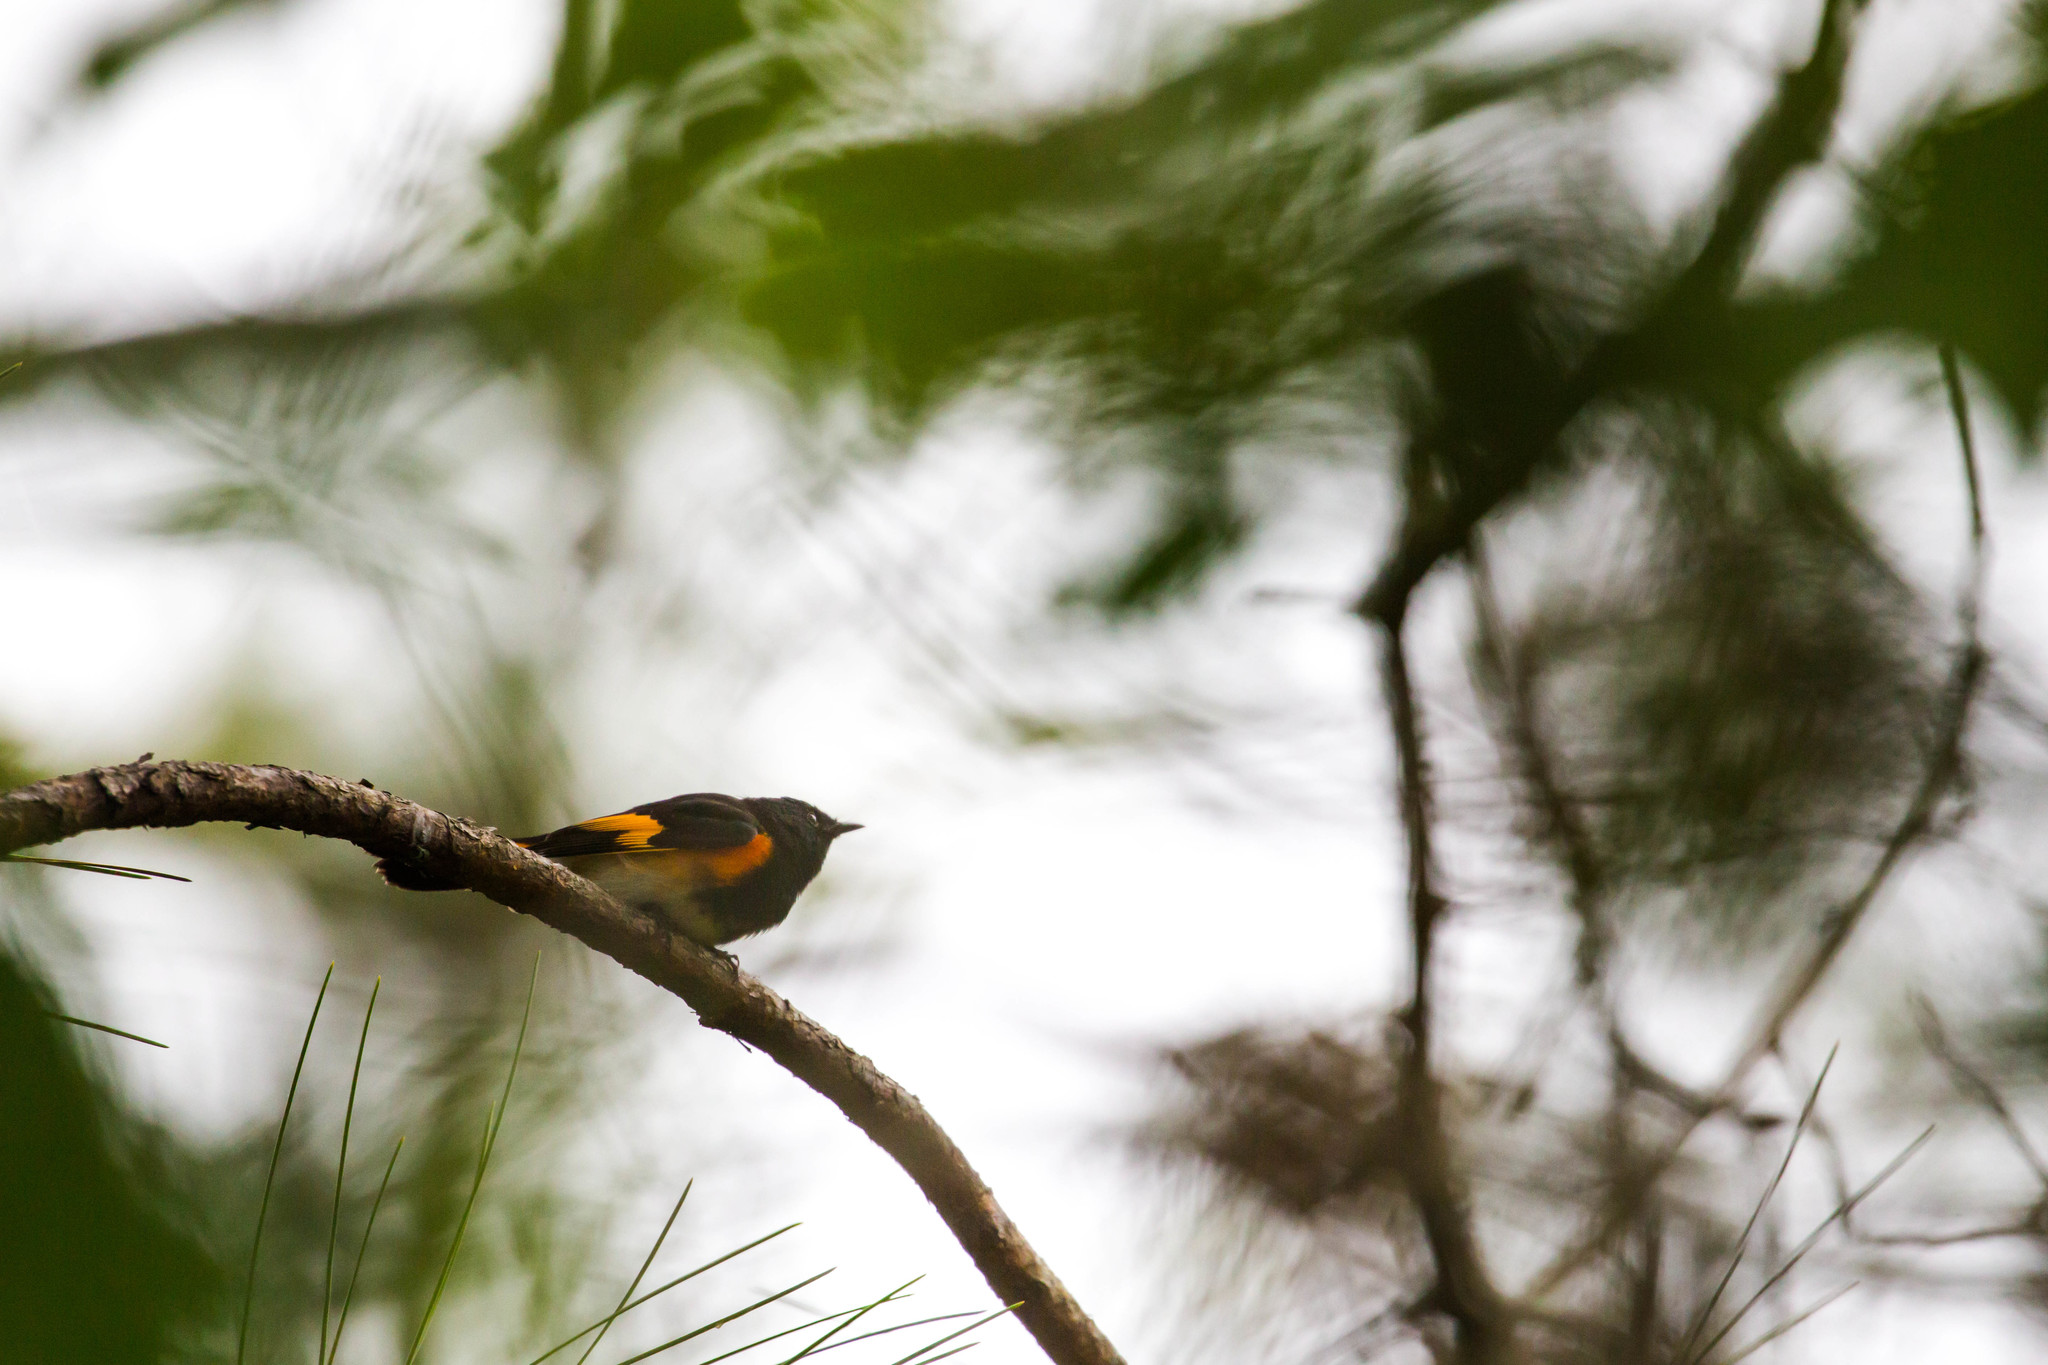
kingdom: Animalia
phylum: Chordata
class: Aves
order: Passeriformes
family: Parulidae
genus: Setophaga
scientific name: Setophaga ruticilla
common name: American redstart
